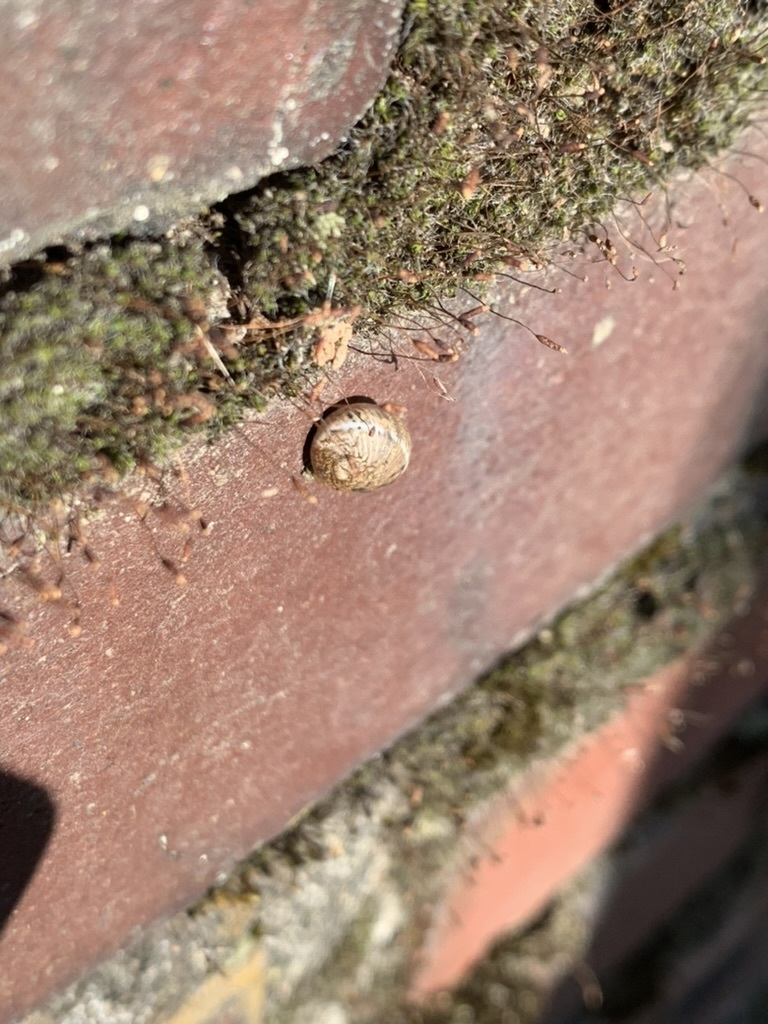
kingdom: Animalia
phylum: Mollusca
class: Gastropoda
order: Stylommatophora
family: Helicidae
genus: Cornu
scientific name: Cornu aspersum
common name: Brown garden snail
